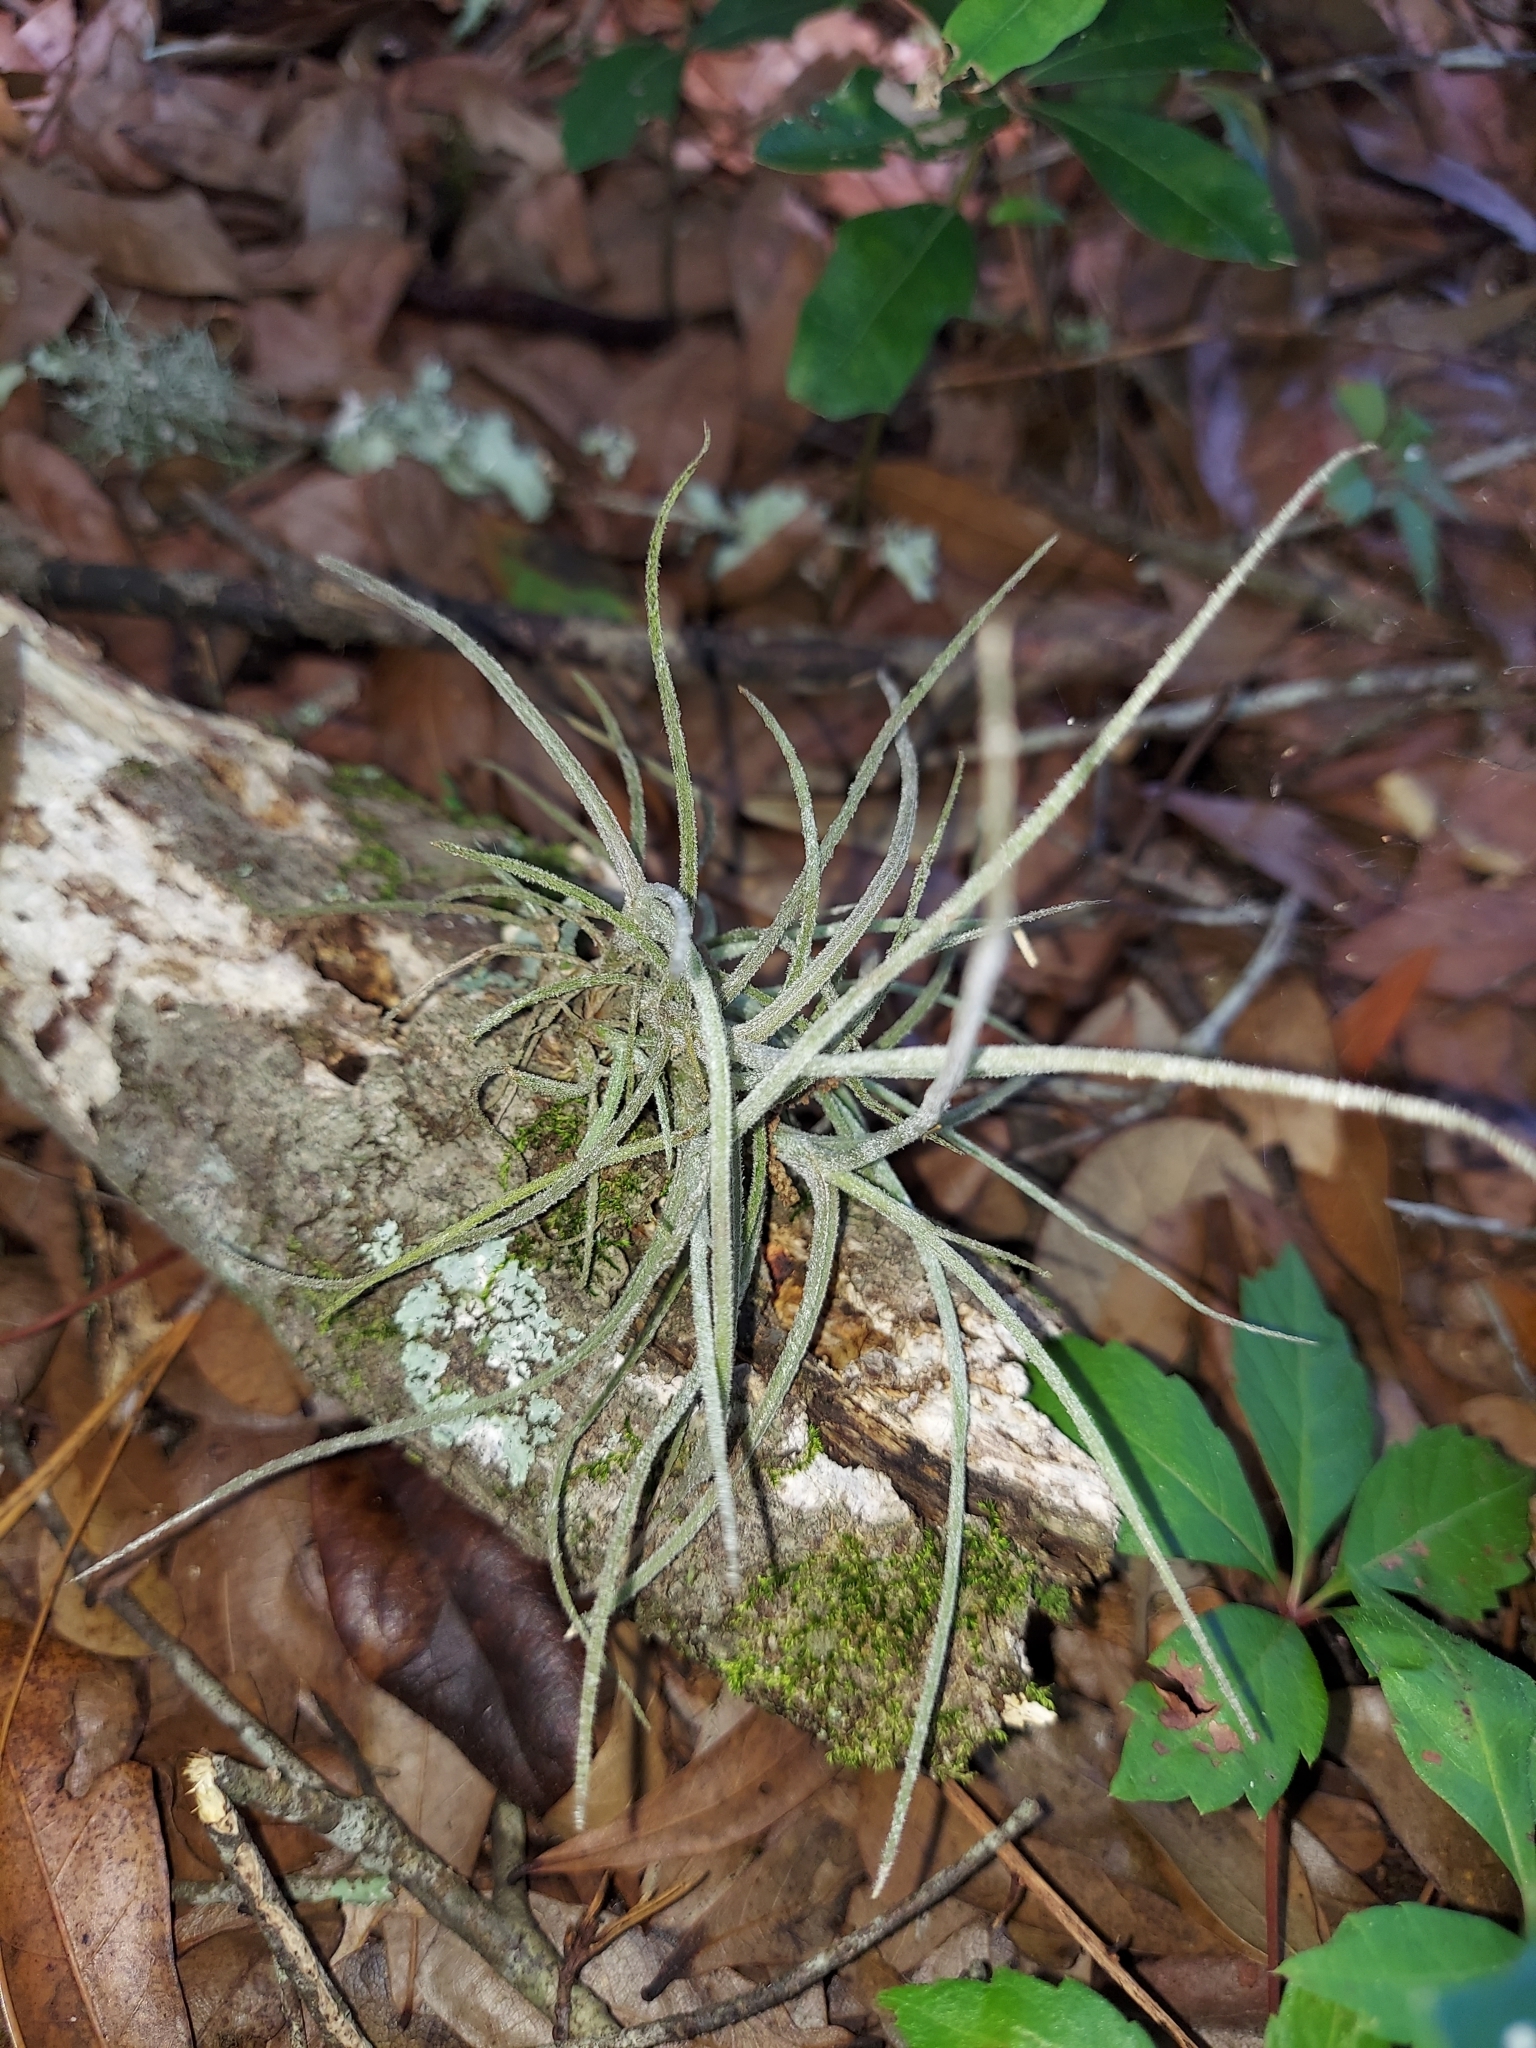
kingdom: Plantae
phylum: Tracheophyta
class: Liliopsida
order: Poales
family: Bromeliaceae
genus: Tillandsia
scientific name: Tillandsia recurvata
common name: Small ballmoss
